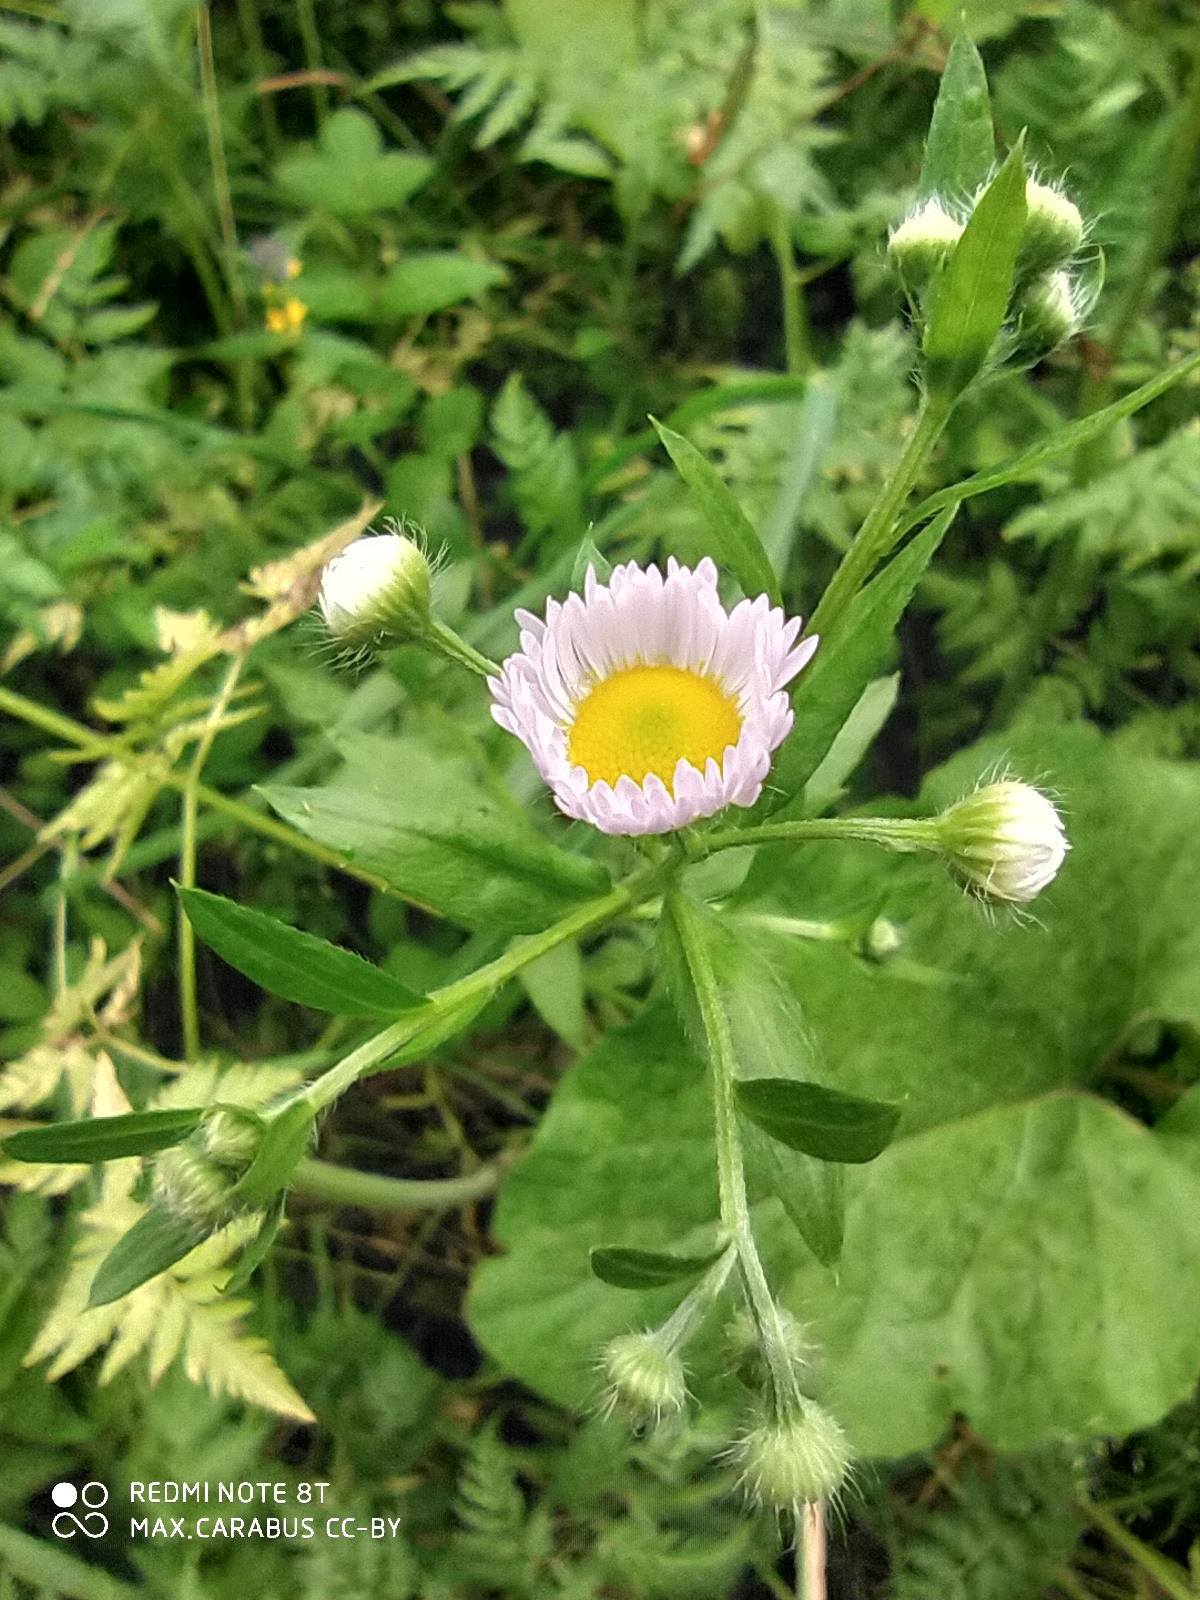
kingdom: Plantae
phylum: Tracheophyta
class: Magnoliopsida
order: Asterales
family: Asteraceae
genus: Erigeron
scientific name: Erigeron annuus
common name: Tall fleabane
